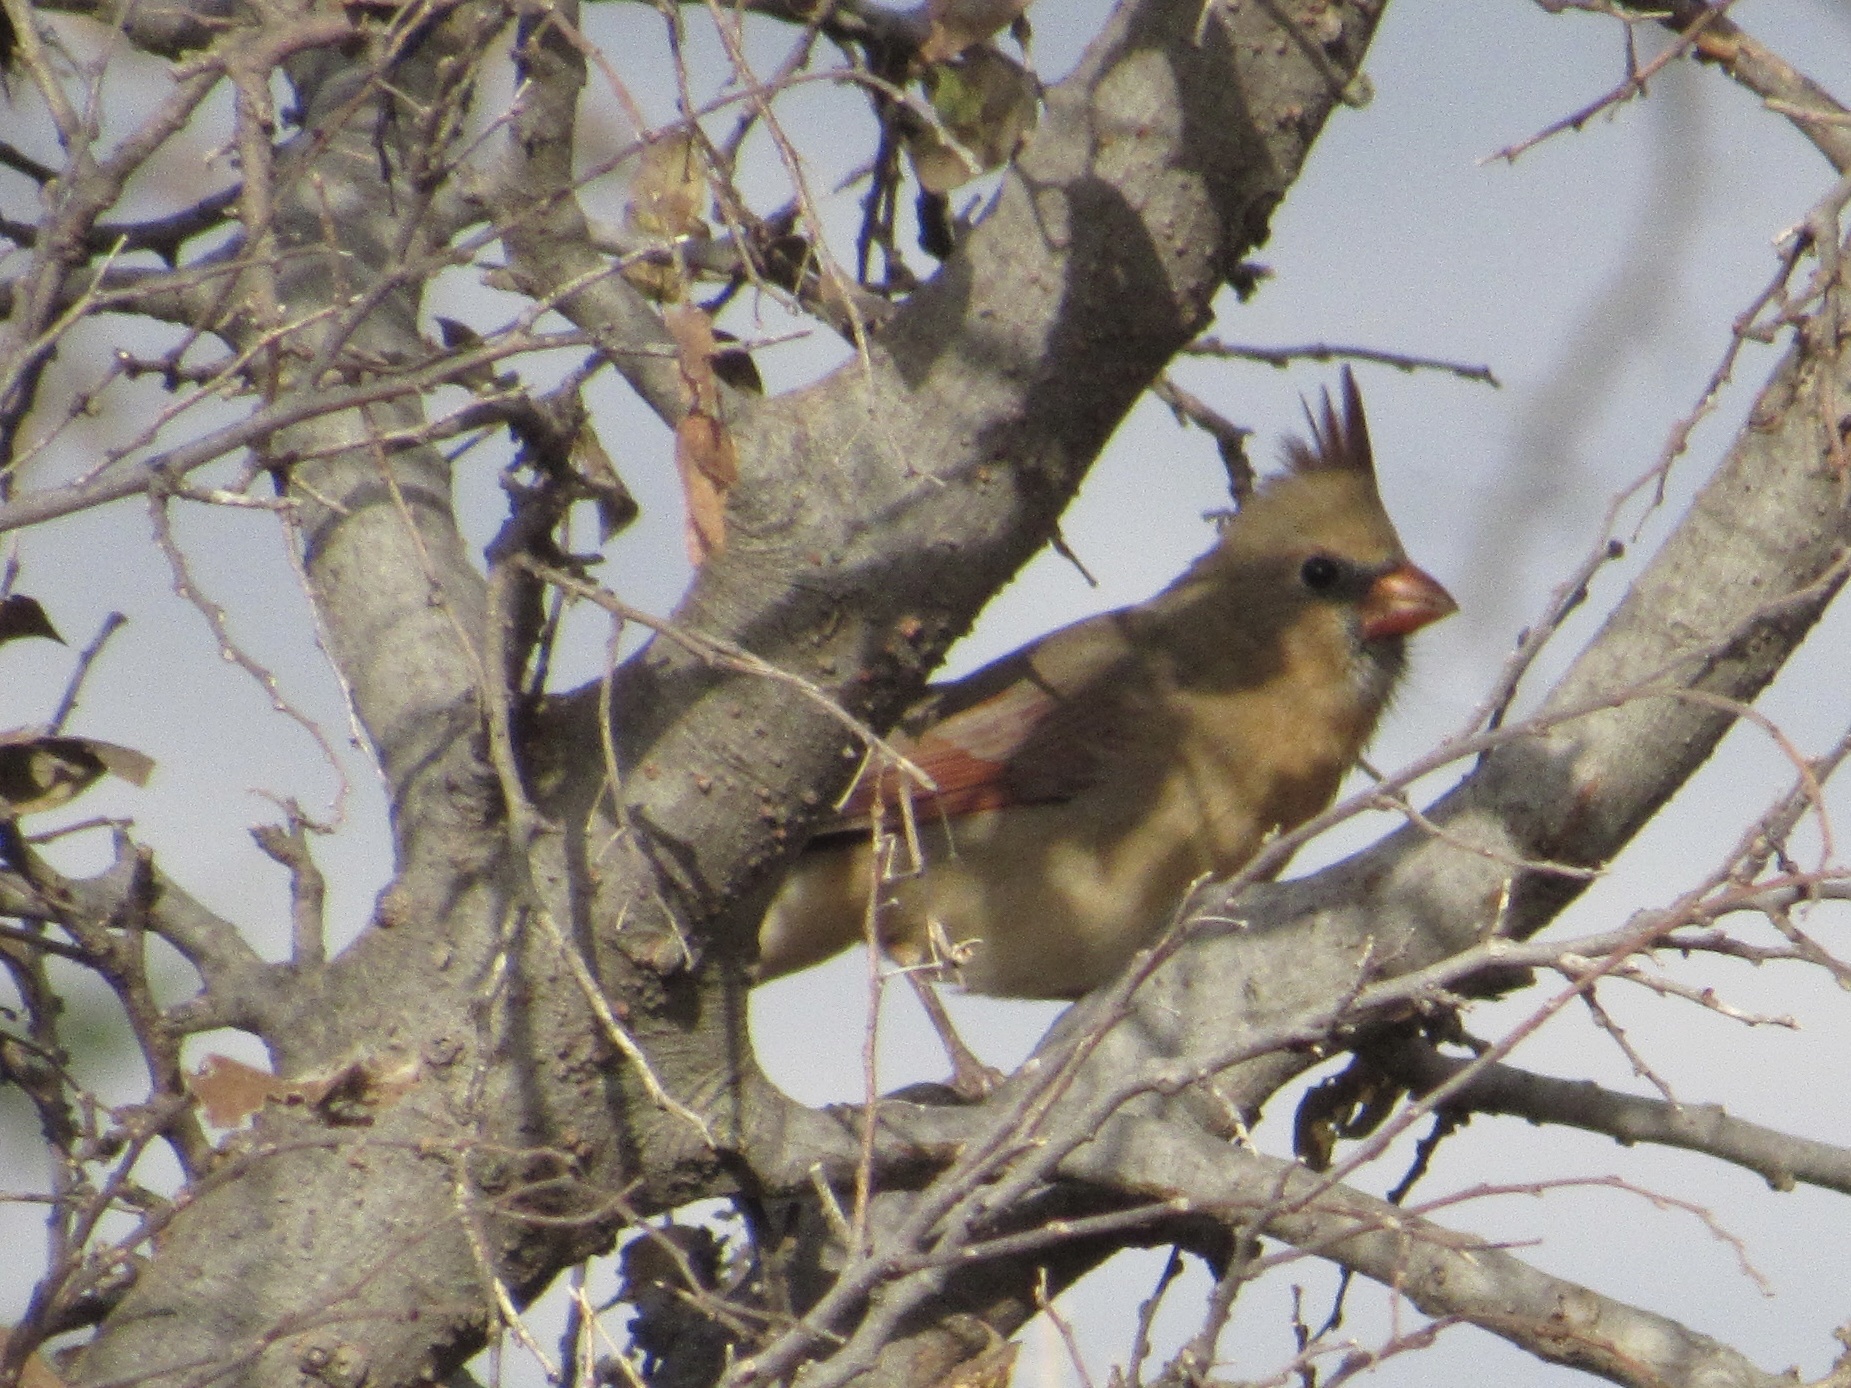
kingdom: Animalia
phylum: Chordata
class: Aves
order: Passeriformes
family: Cardinalidae
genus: Cardinalis
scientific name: Cardinalis cardinalis
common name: Northern cardinal
